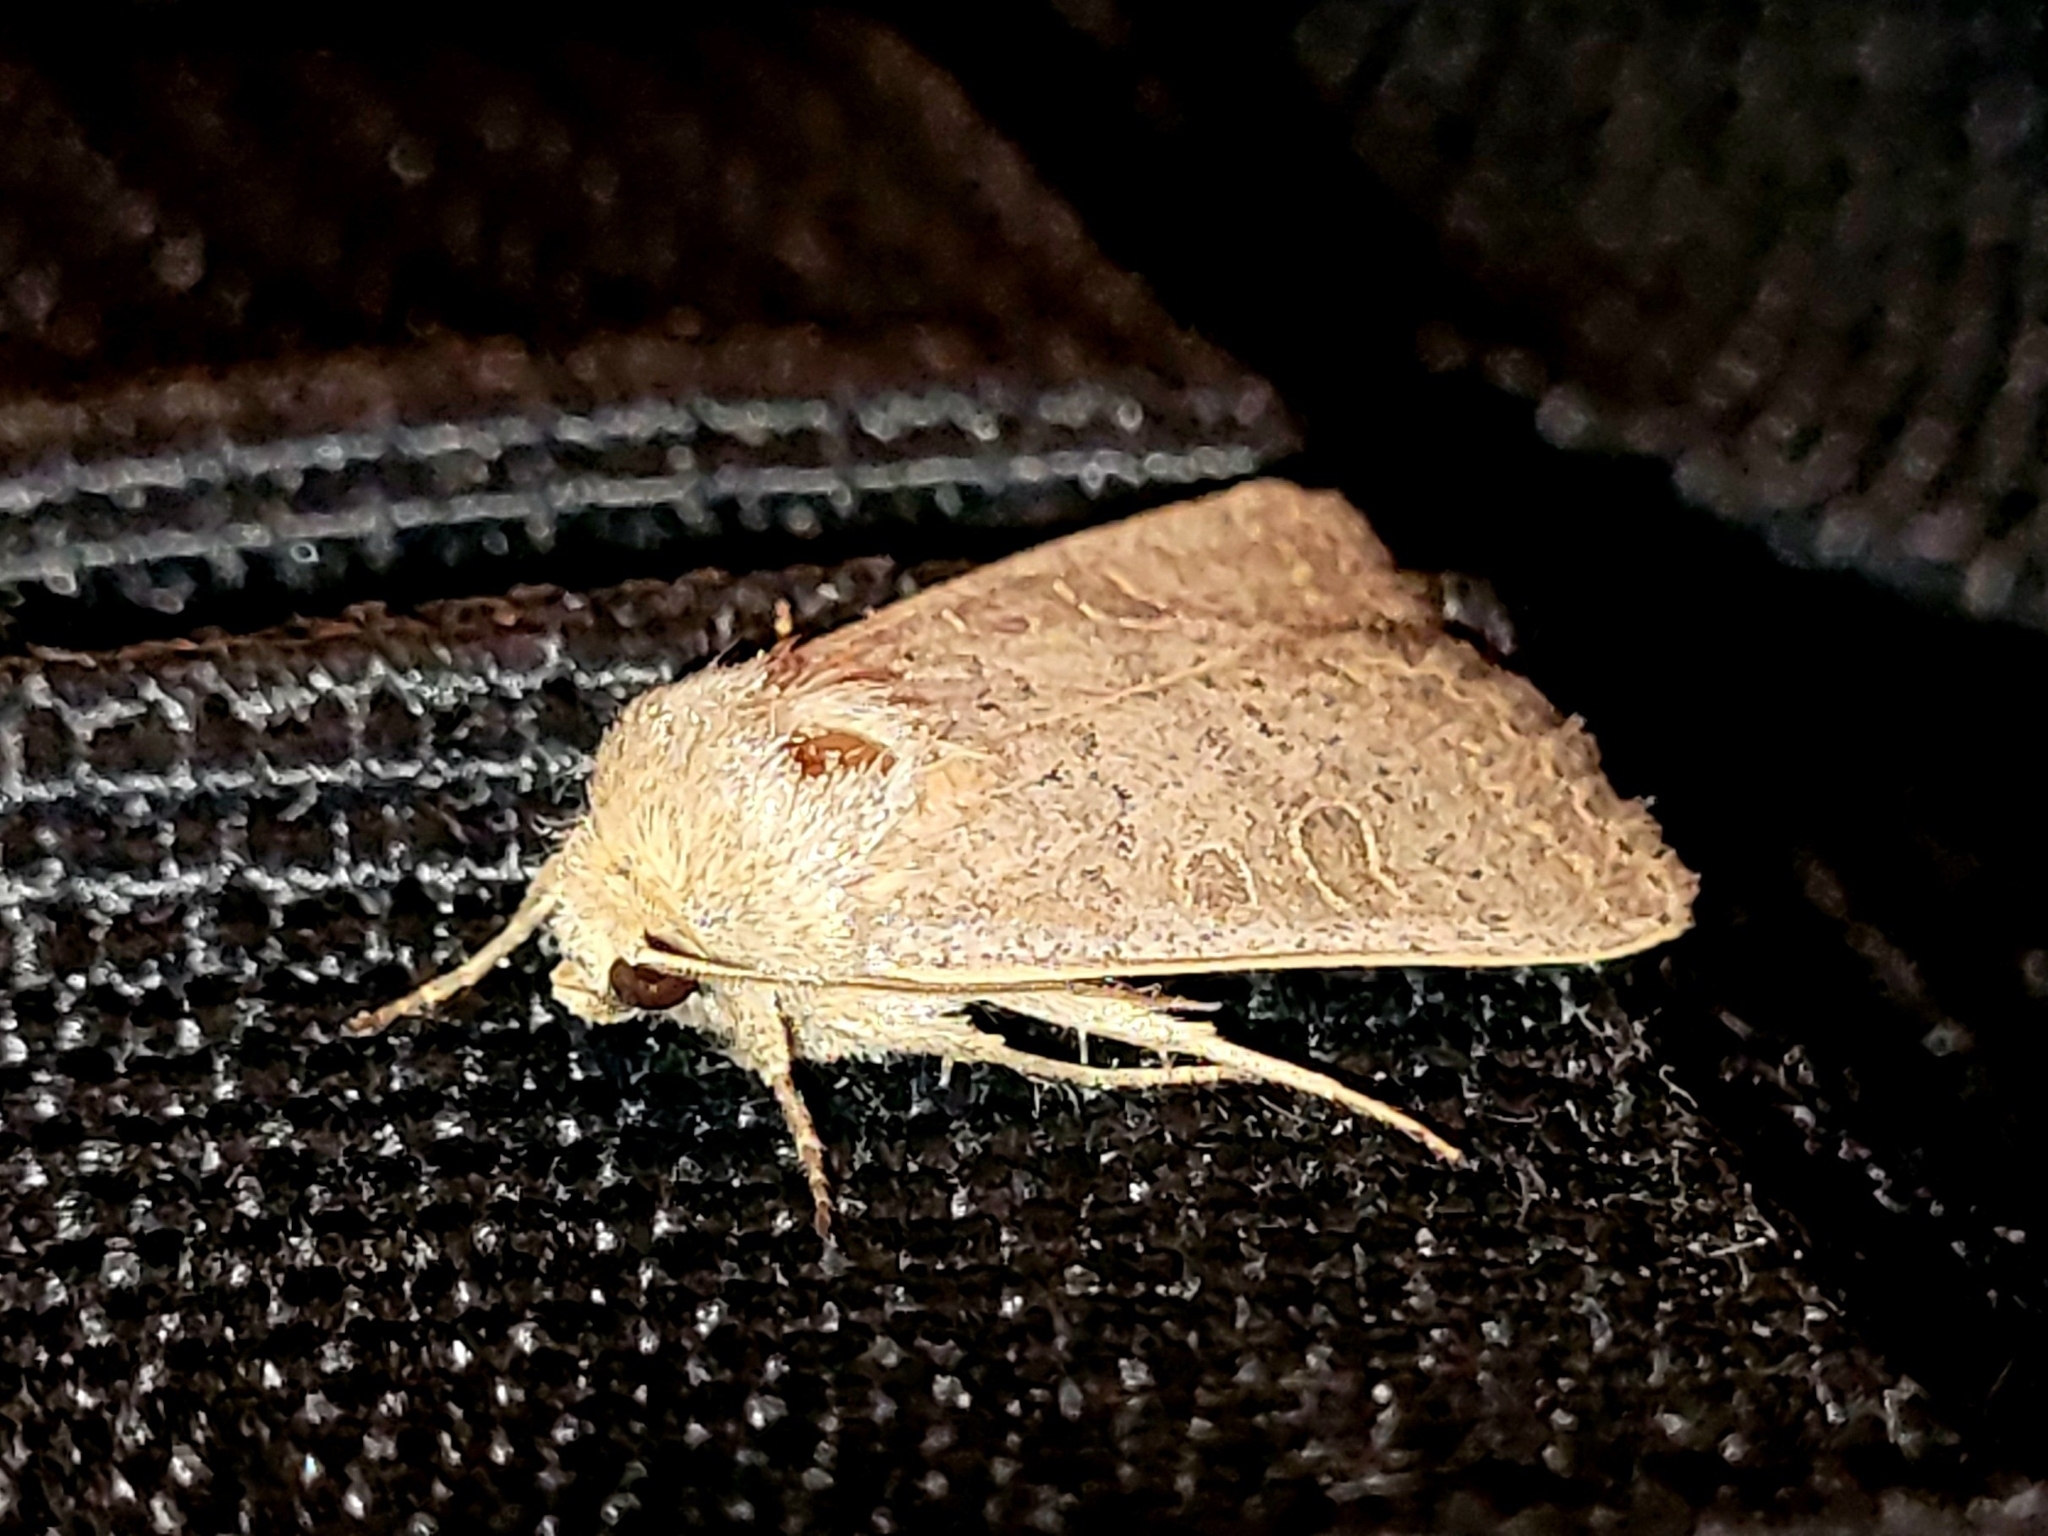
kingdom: Animalia
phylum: Arthropoda
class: Insecta
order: Lepidoptera
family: Noctuidae
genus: Hoplodrina
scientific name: Hoplodrina ambigua
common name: Vine's rustic
